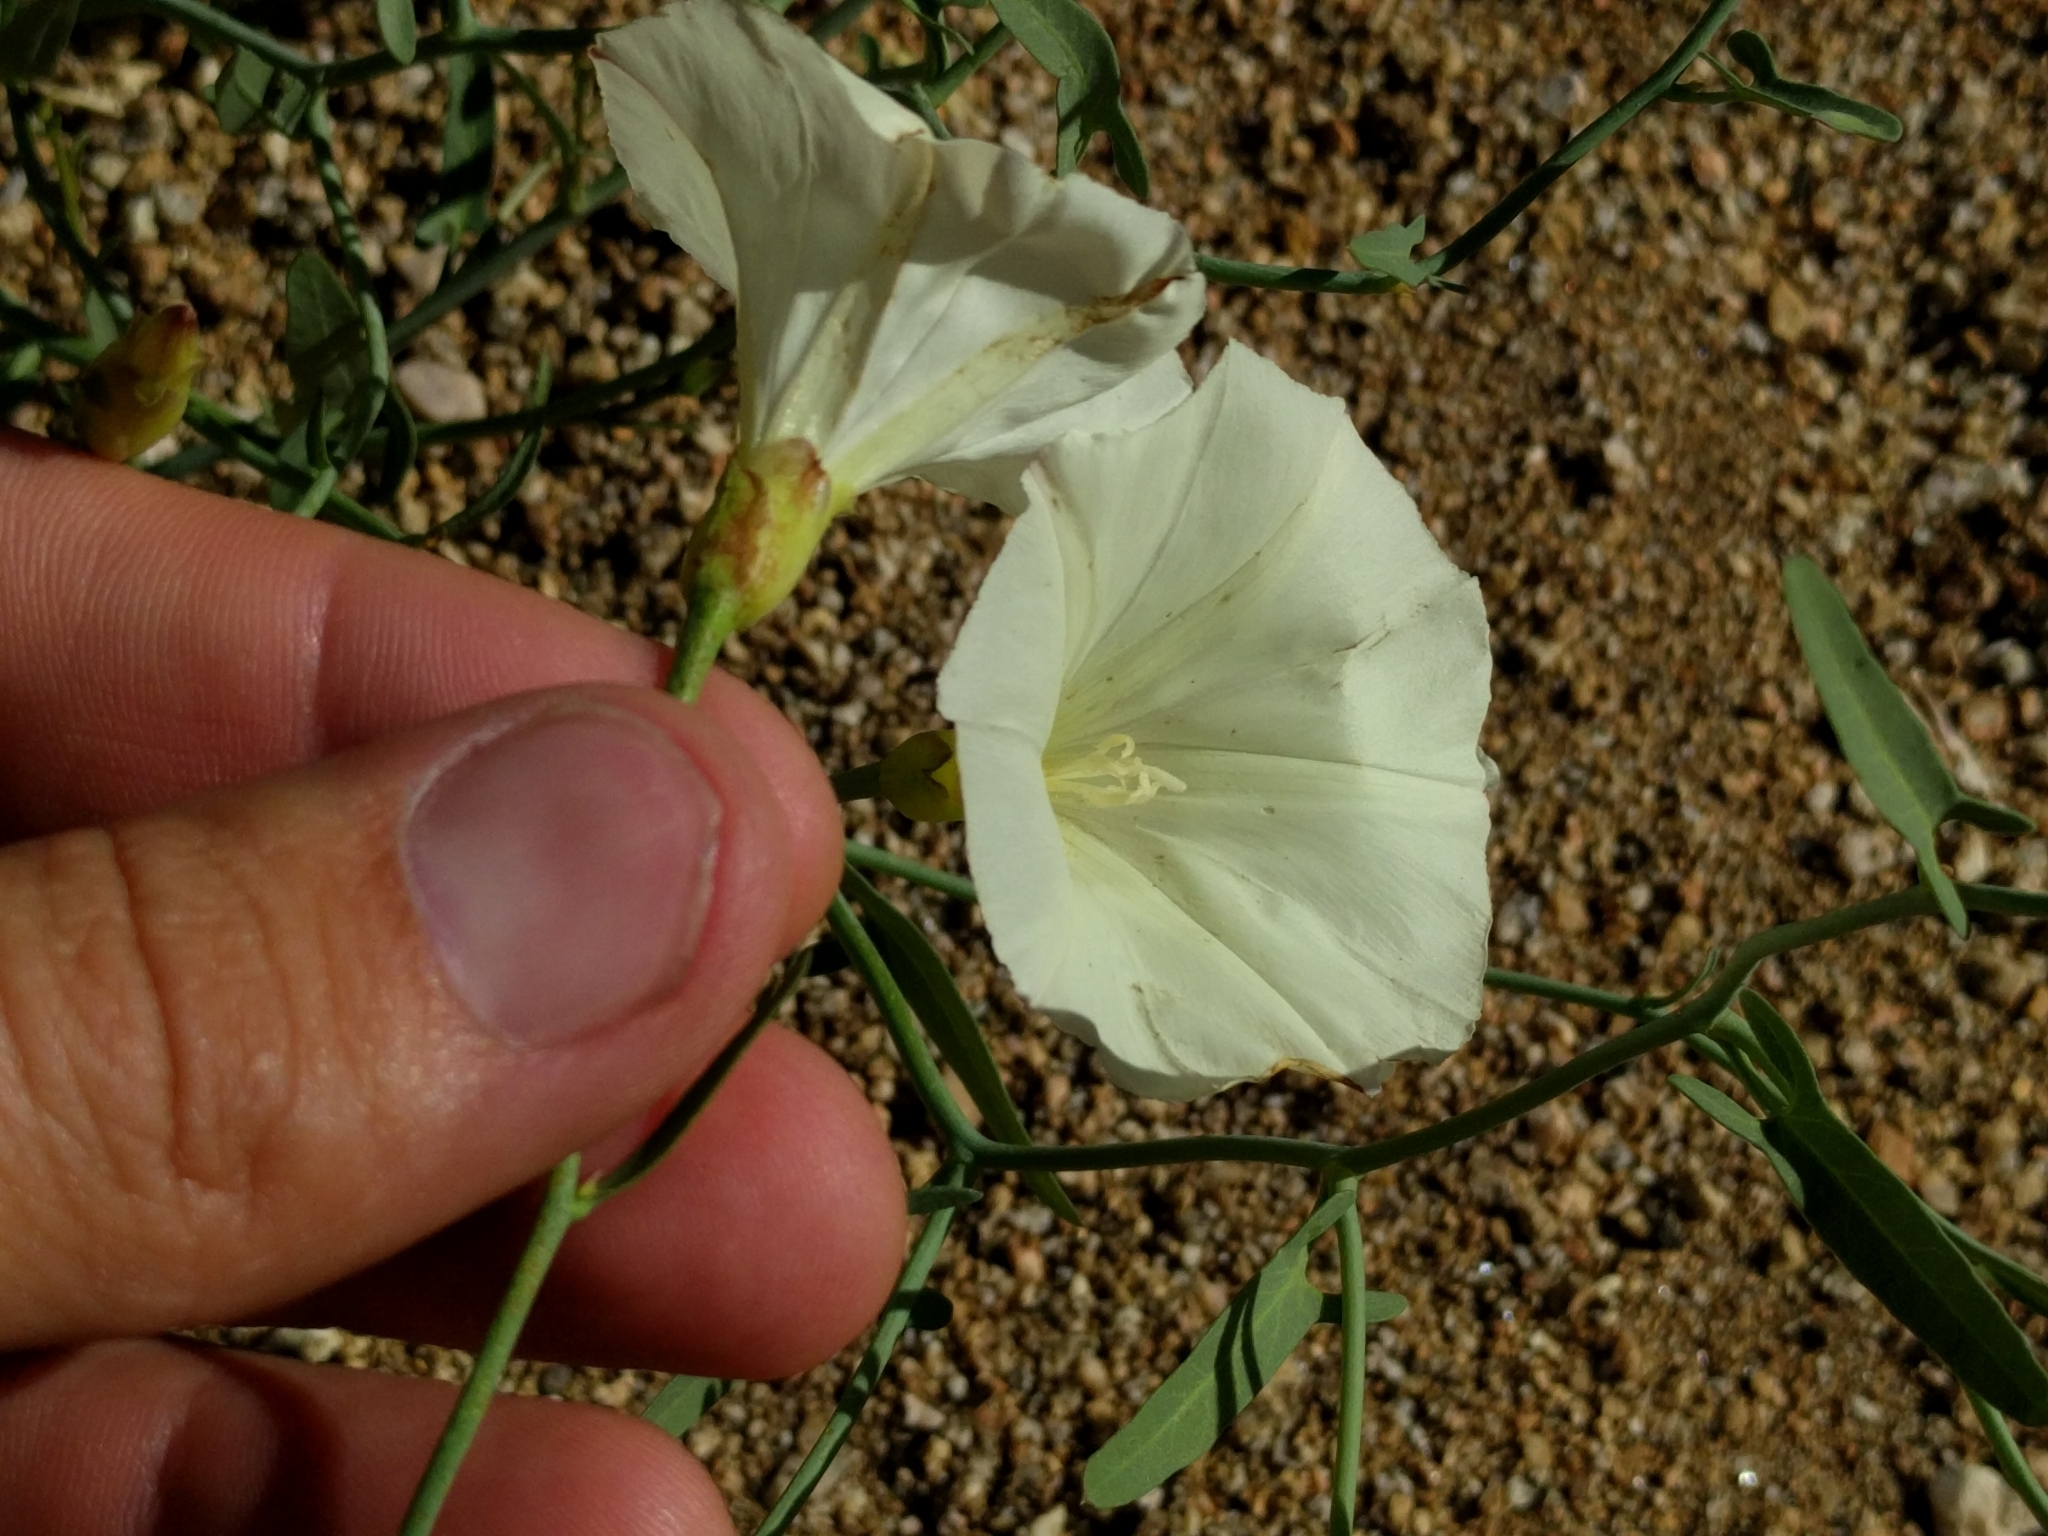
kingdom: Plantae
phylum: Tracheophyta
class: Magnoliopsida
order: Solanales
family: Convolvulaceae
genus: Calystegia
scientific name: Calystegia longipes
